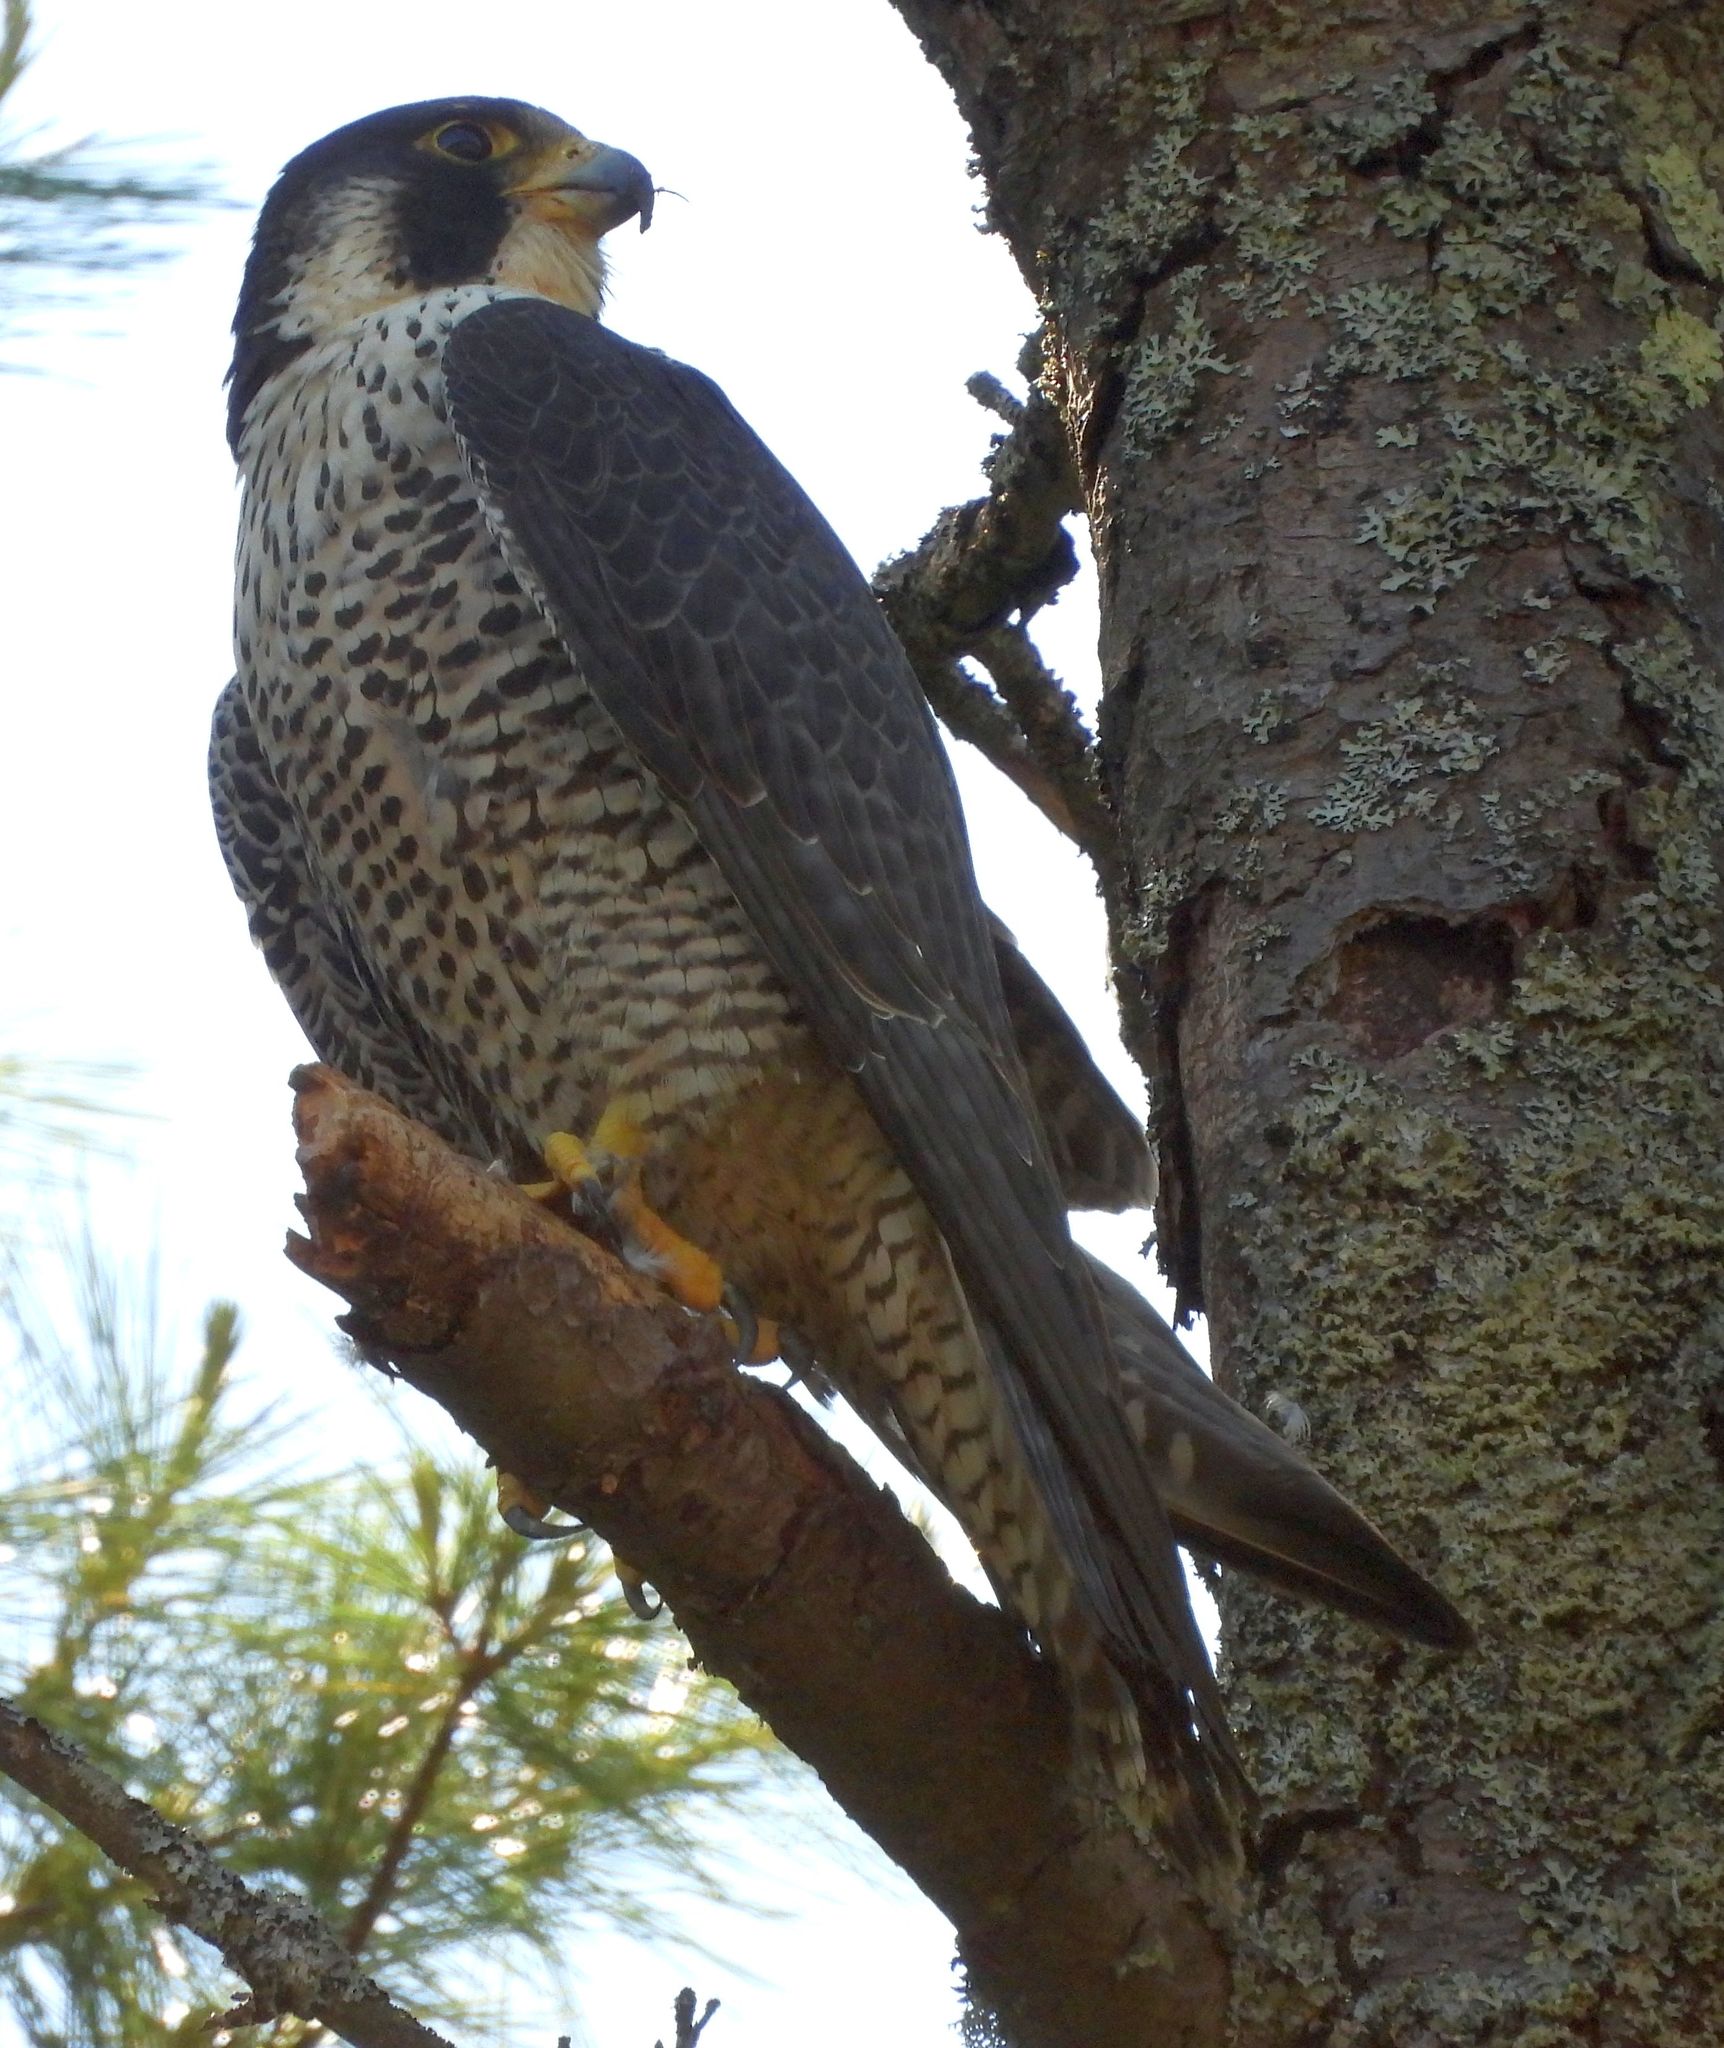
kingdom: Animalia
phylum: Chordata
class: Aves
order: Falconiformes
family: Falconidae
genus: Falco
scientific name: Falco peregrinus
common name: Peregrine falcon
